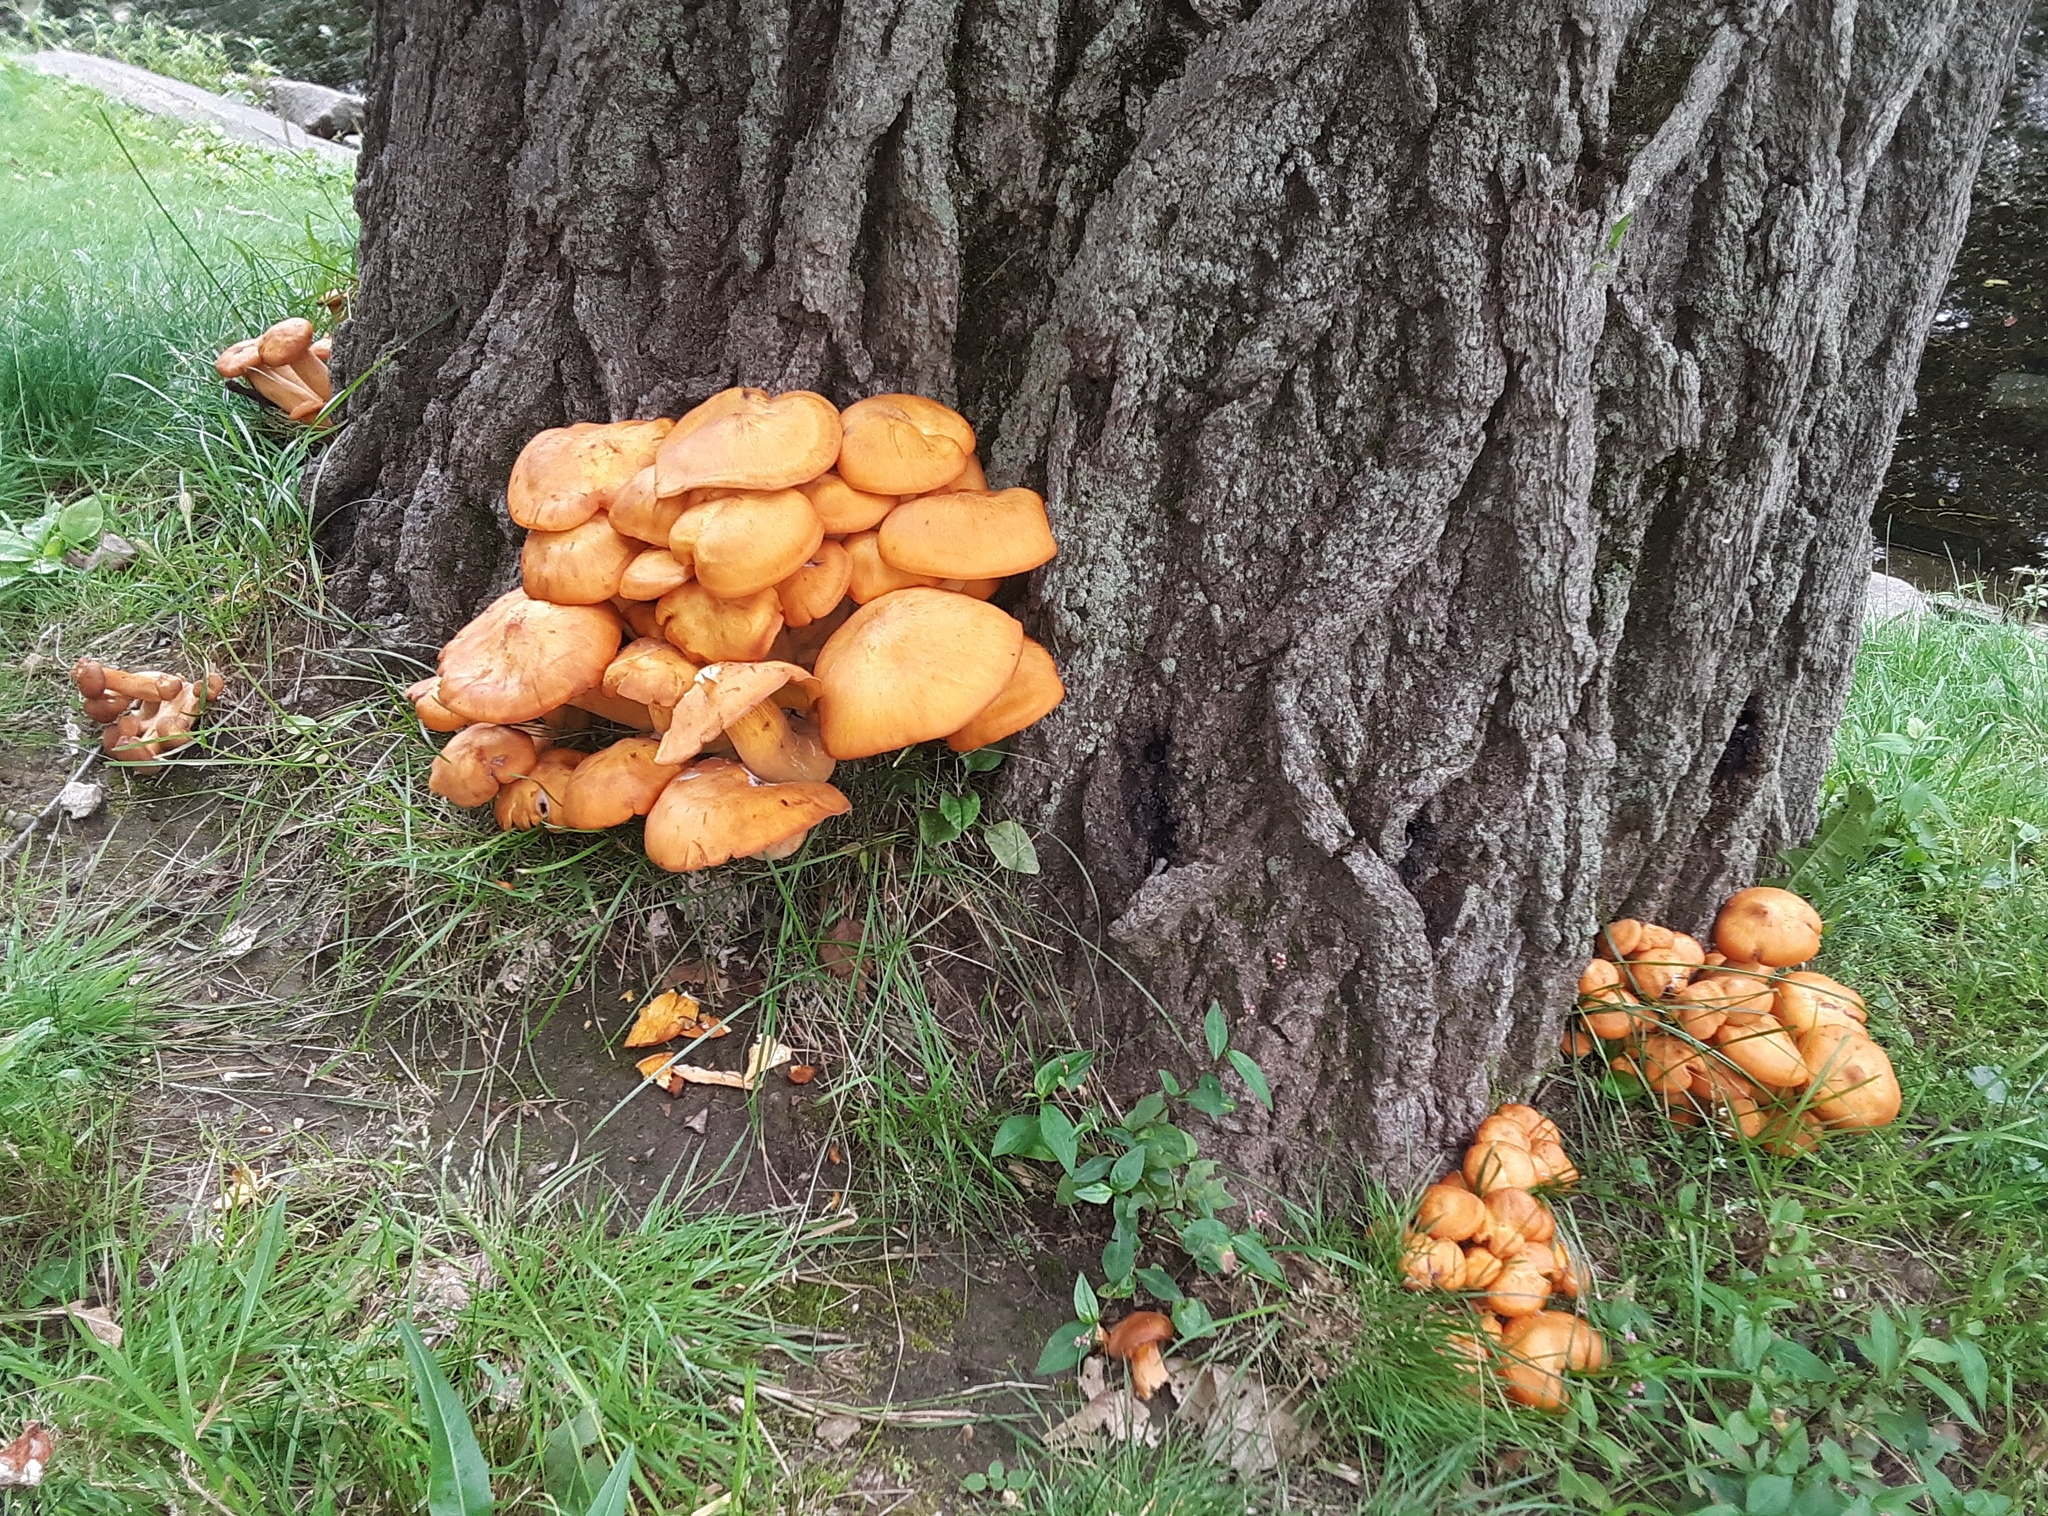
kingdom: Fungi
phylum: Basidiomycota
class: Agaricomycetes
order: Agaricales
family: Omphalotaceae
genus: Omphalotus
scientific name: Omphalotus illudens
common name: Jack o lantern
